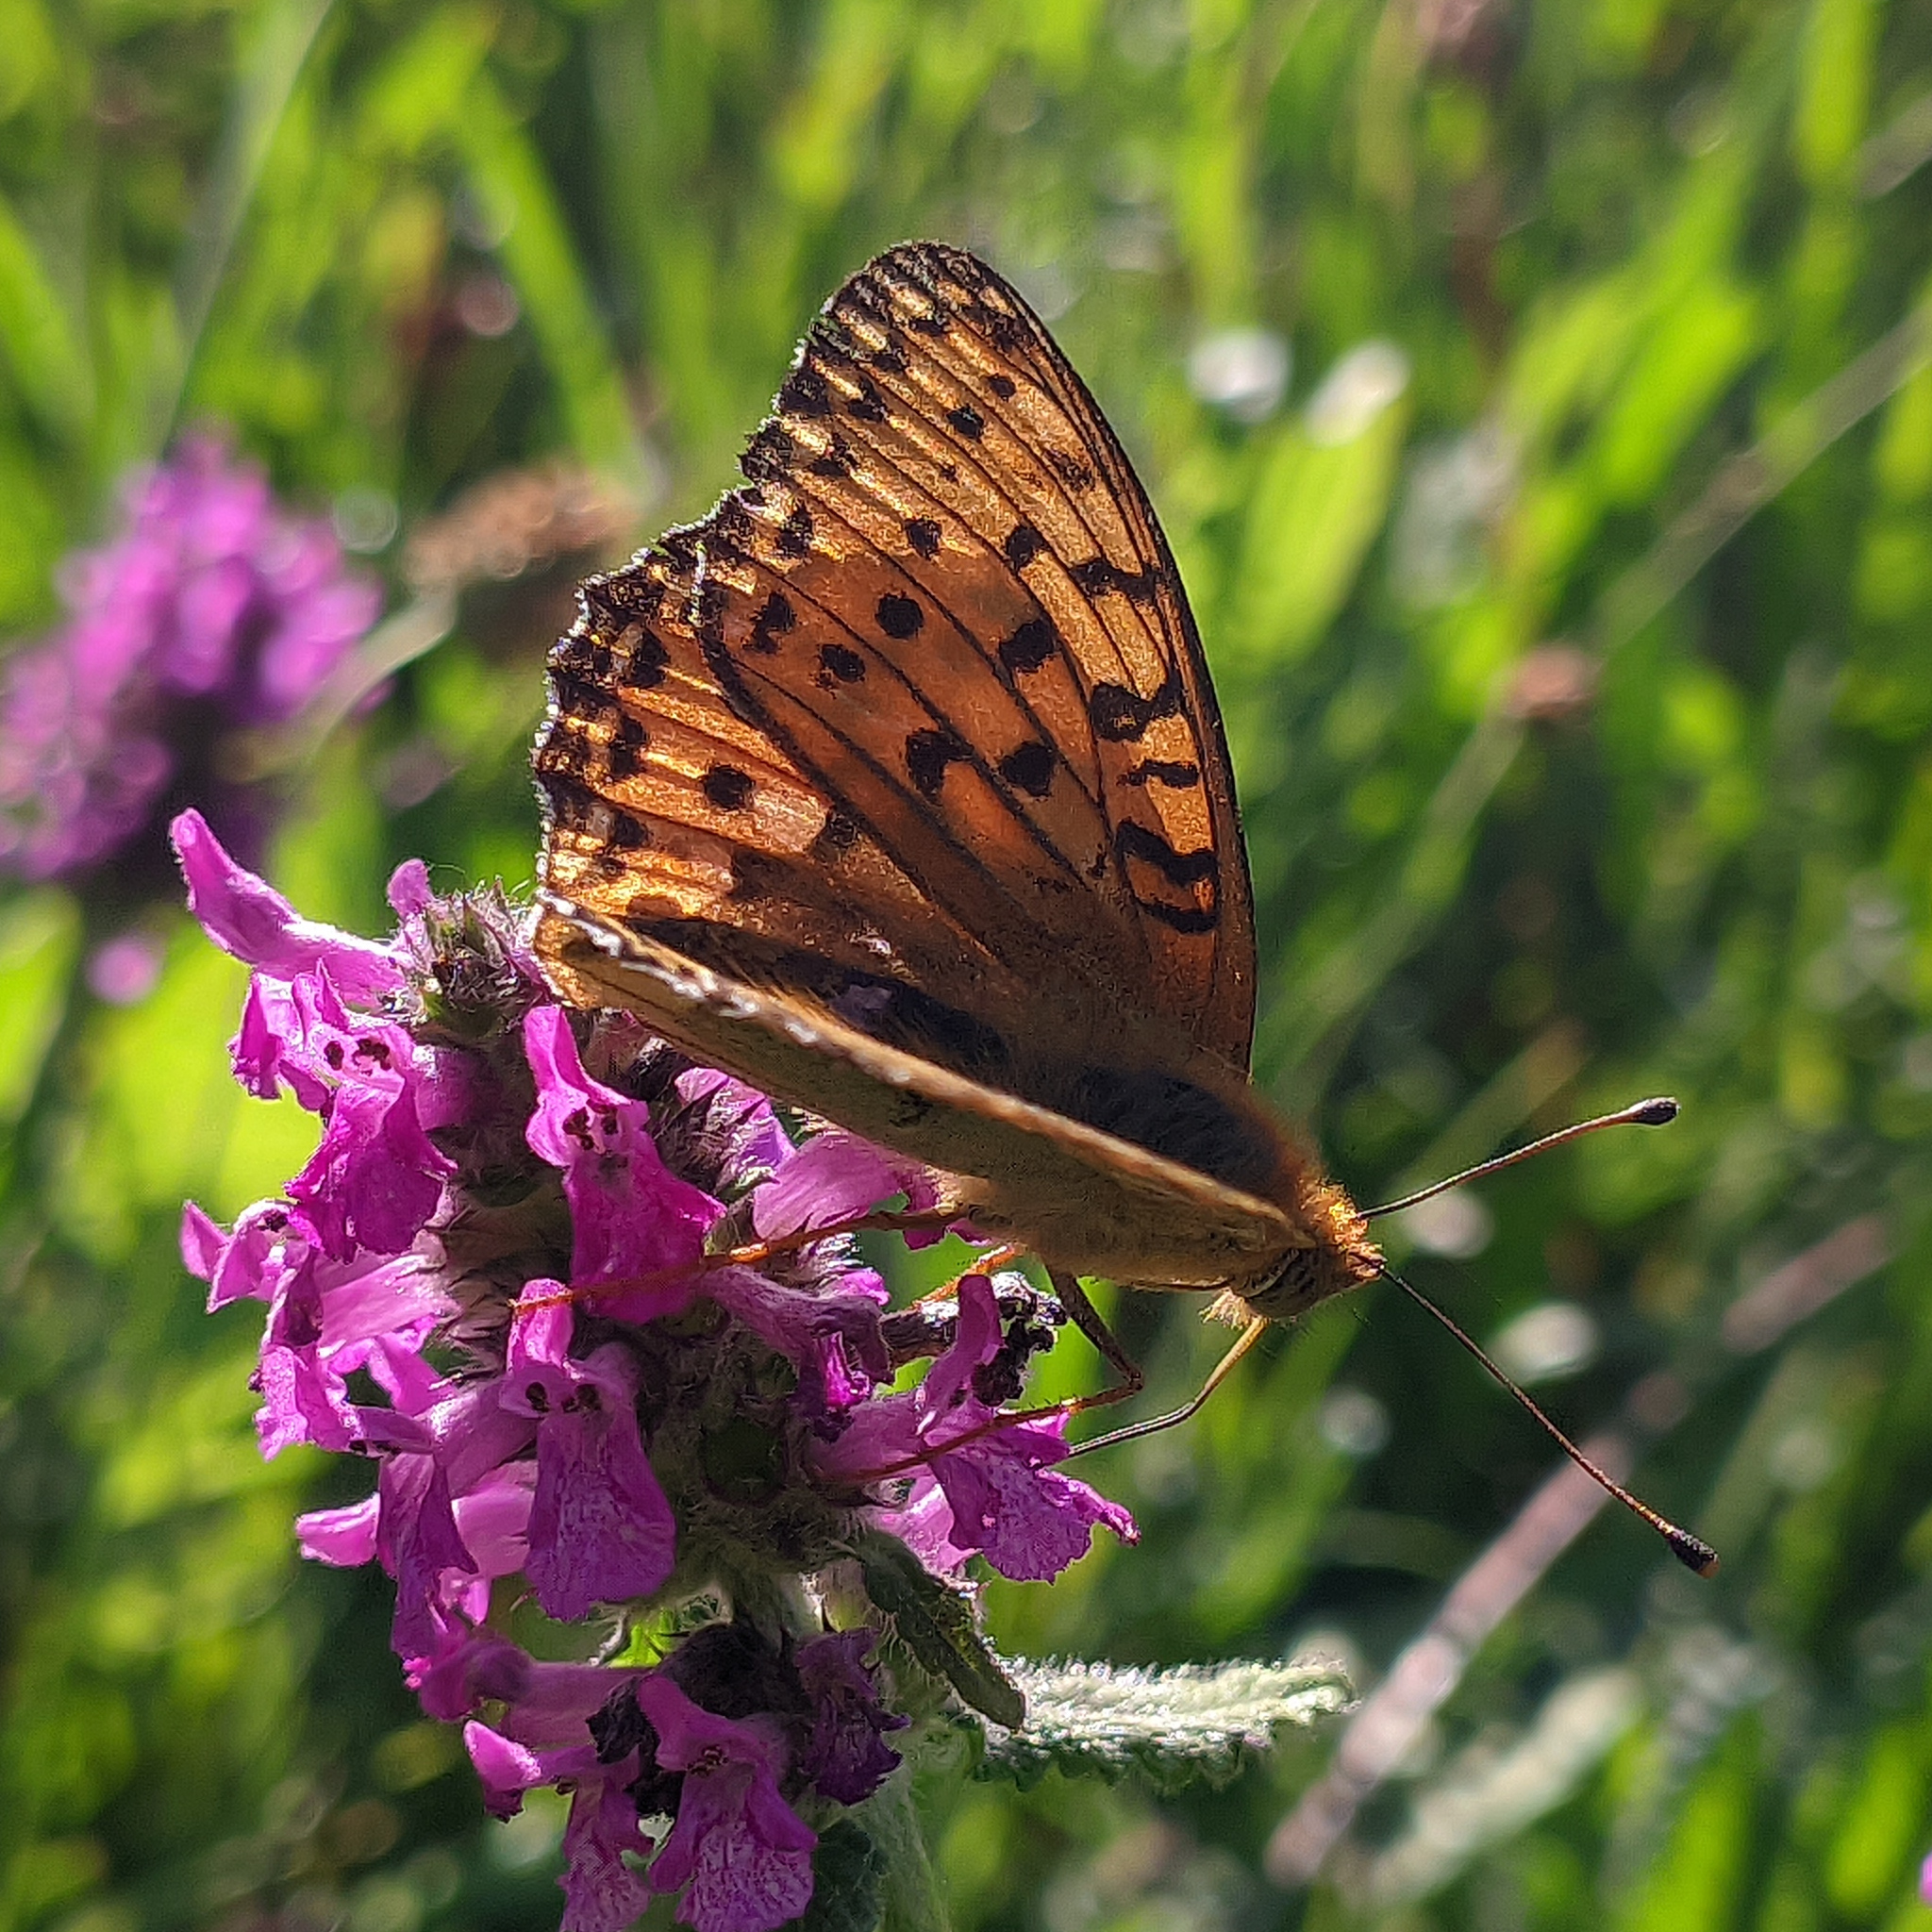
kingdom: Animalia
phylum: Arthropoda
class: Insecta
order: Lepidoptera
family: Nymphalidae
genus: Speyeria
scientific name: Speyeria aglaja
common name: Dark green fritillary
